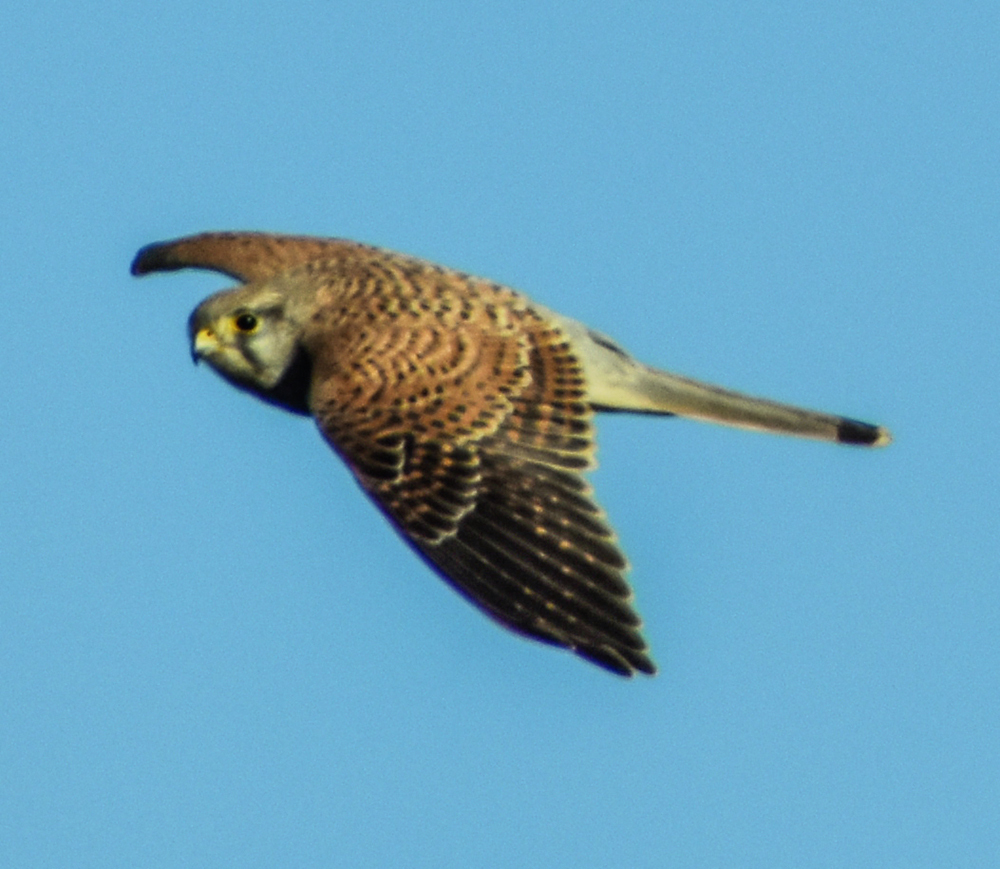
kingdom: Animalia
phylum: Chordata
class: Aves
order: Falconiformes
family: Falconidae
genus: Falco
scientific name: Falco tinnunculus
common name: Common kestrel
